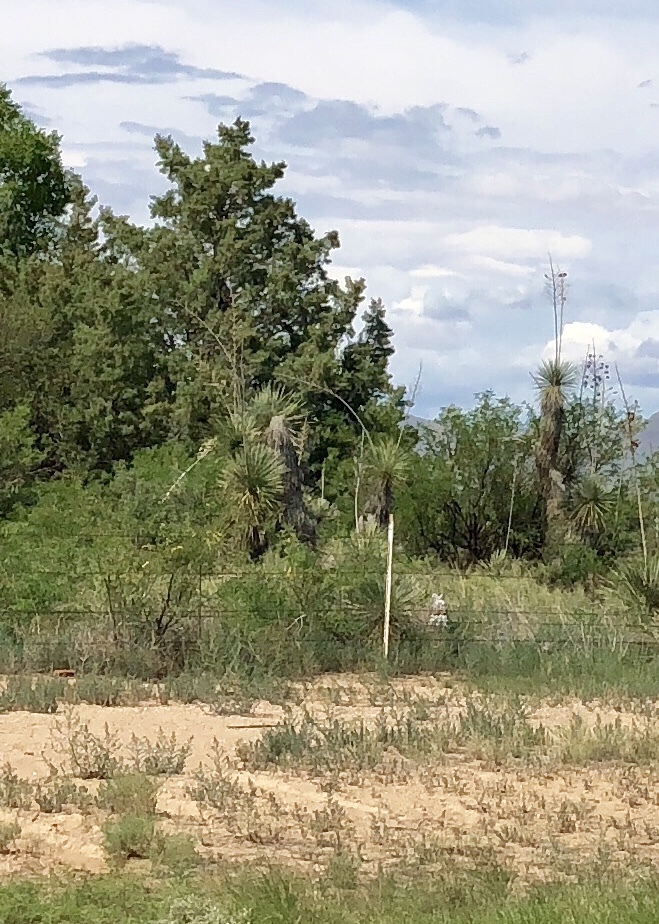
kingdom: Plantae
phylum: Tracheophyta
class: Liliopsida
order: Asparagales
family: Asparagaceae
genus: Yucca
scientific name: Yucca elata
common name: Palmella
